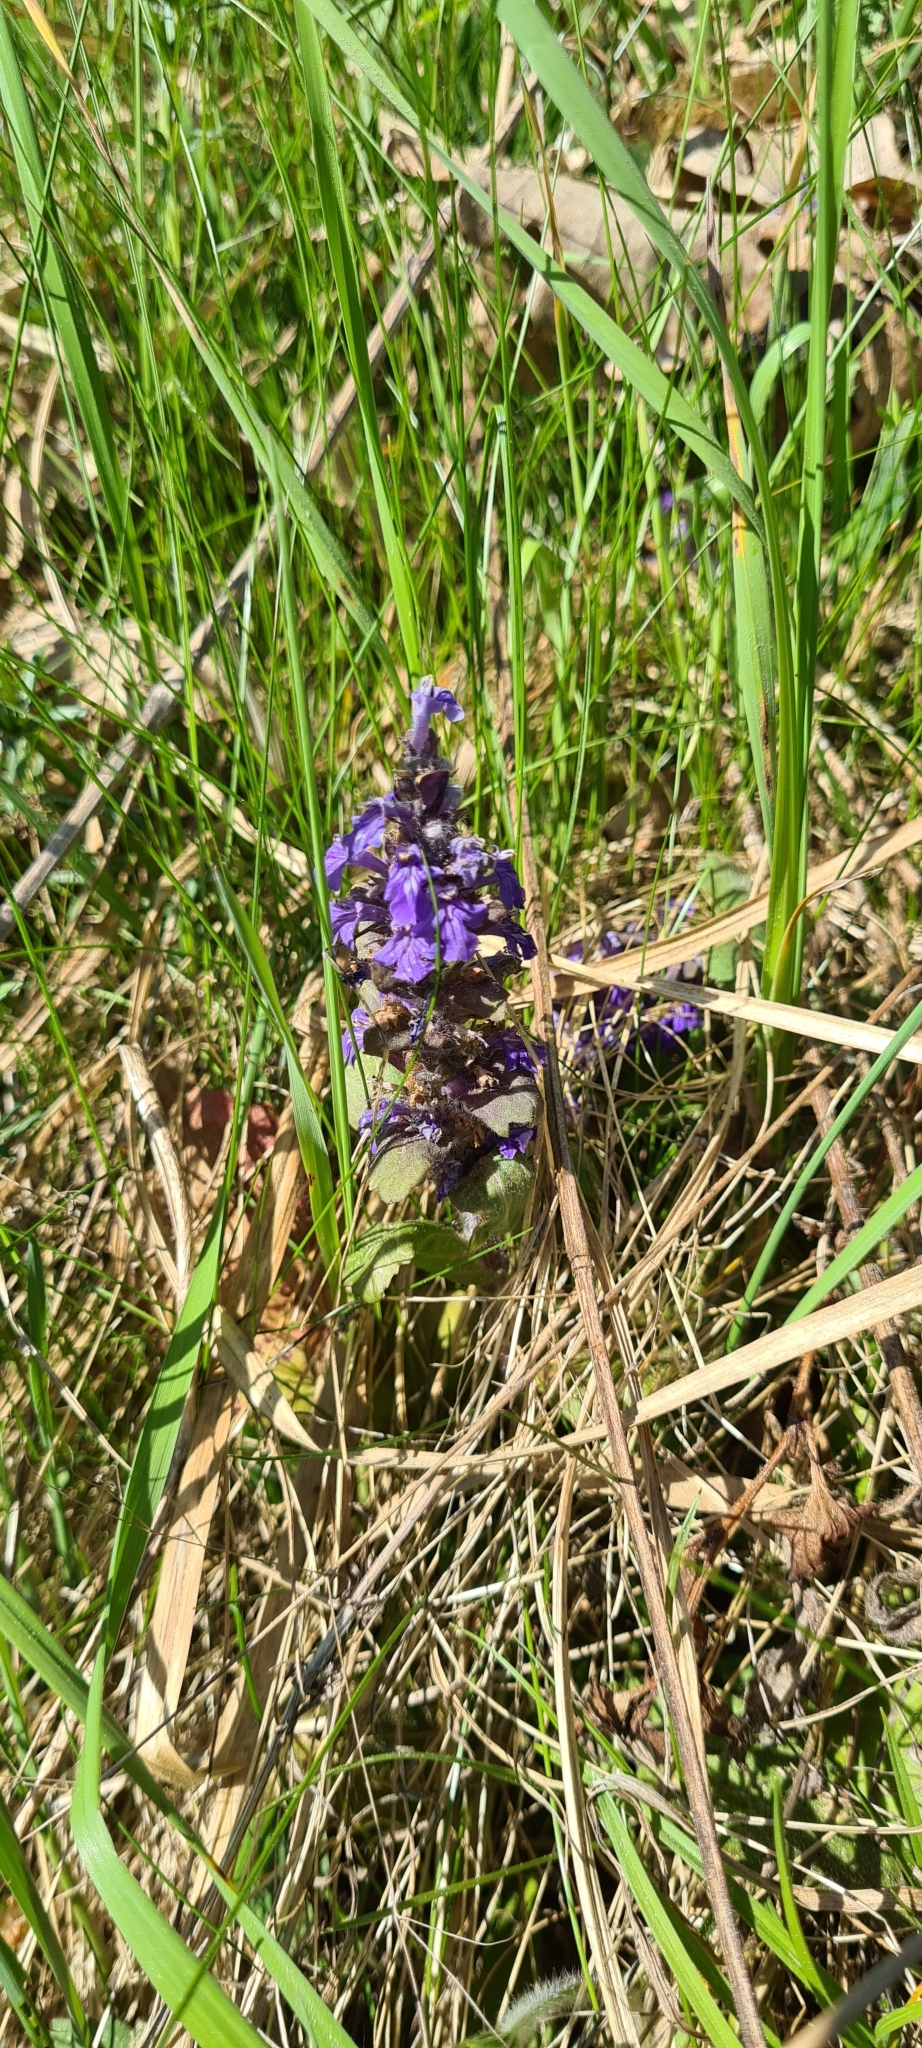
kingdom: Plantae
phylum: Tracheophyta
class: Magnoliopsida
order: Lamiales
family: Lamiaceae
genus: Ajuga
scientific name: Ajuga reptans
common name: Bugle
